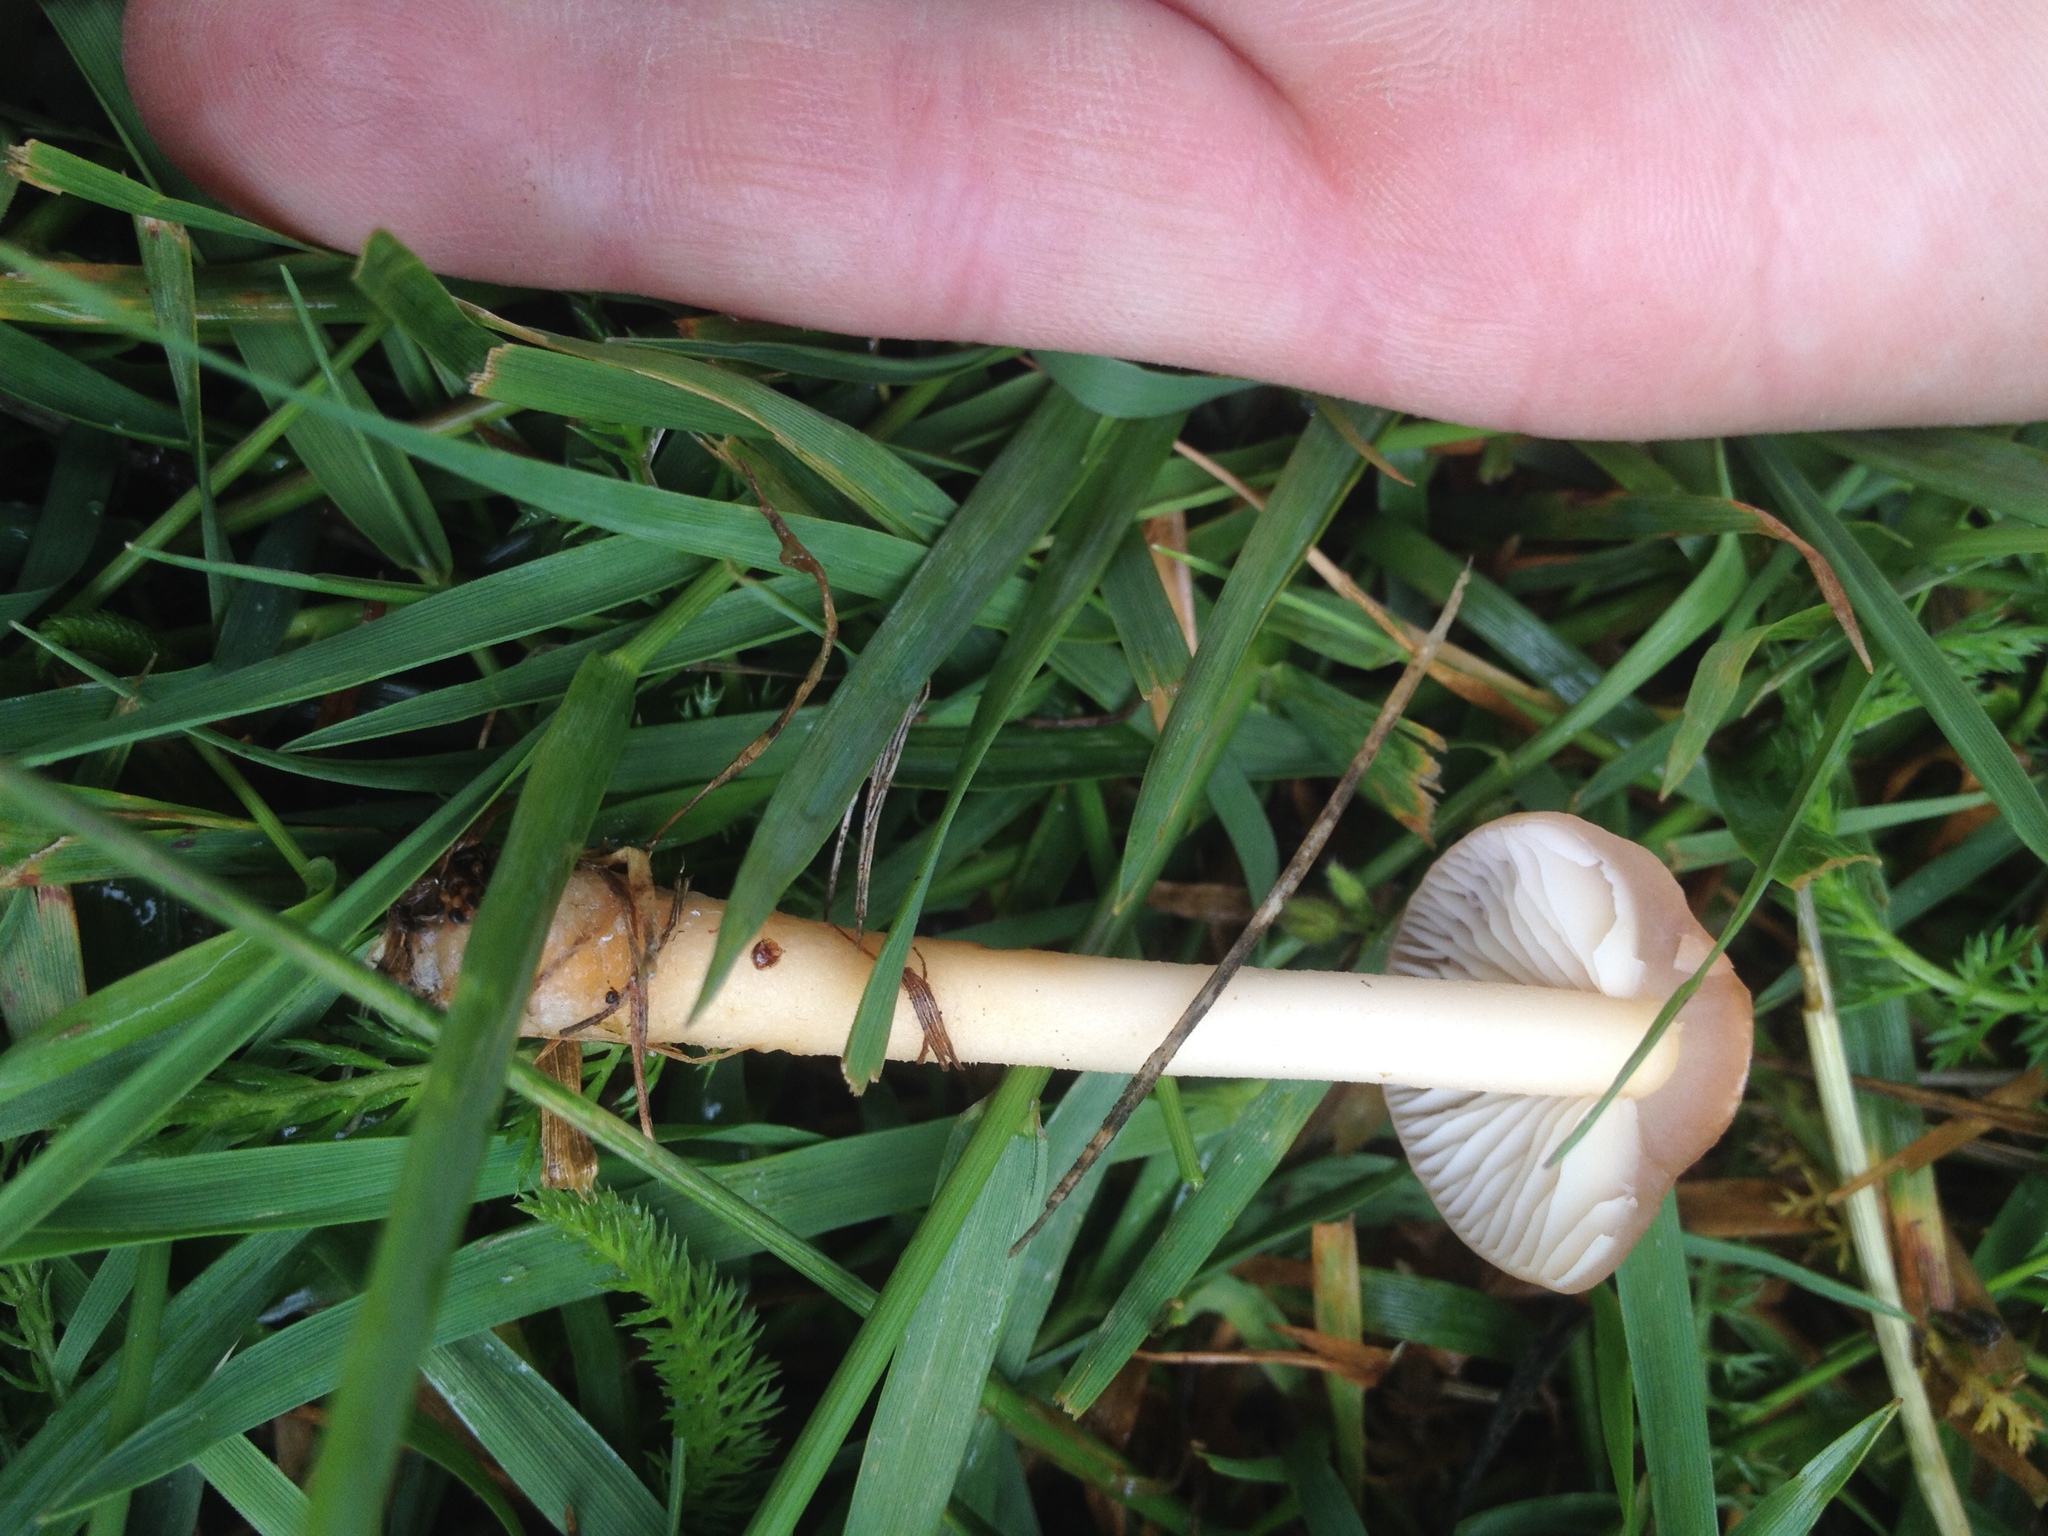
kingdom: Fungi
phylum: Basidiomycota
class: Agaricomycetes
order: Agaricales
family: Marasmiaceae
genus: Marasmius
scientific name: Marasmius oreades
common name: Fairy ring champignon
